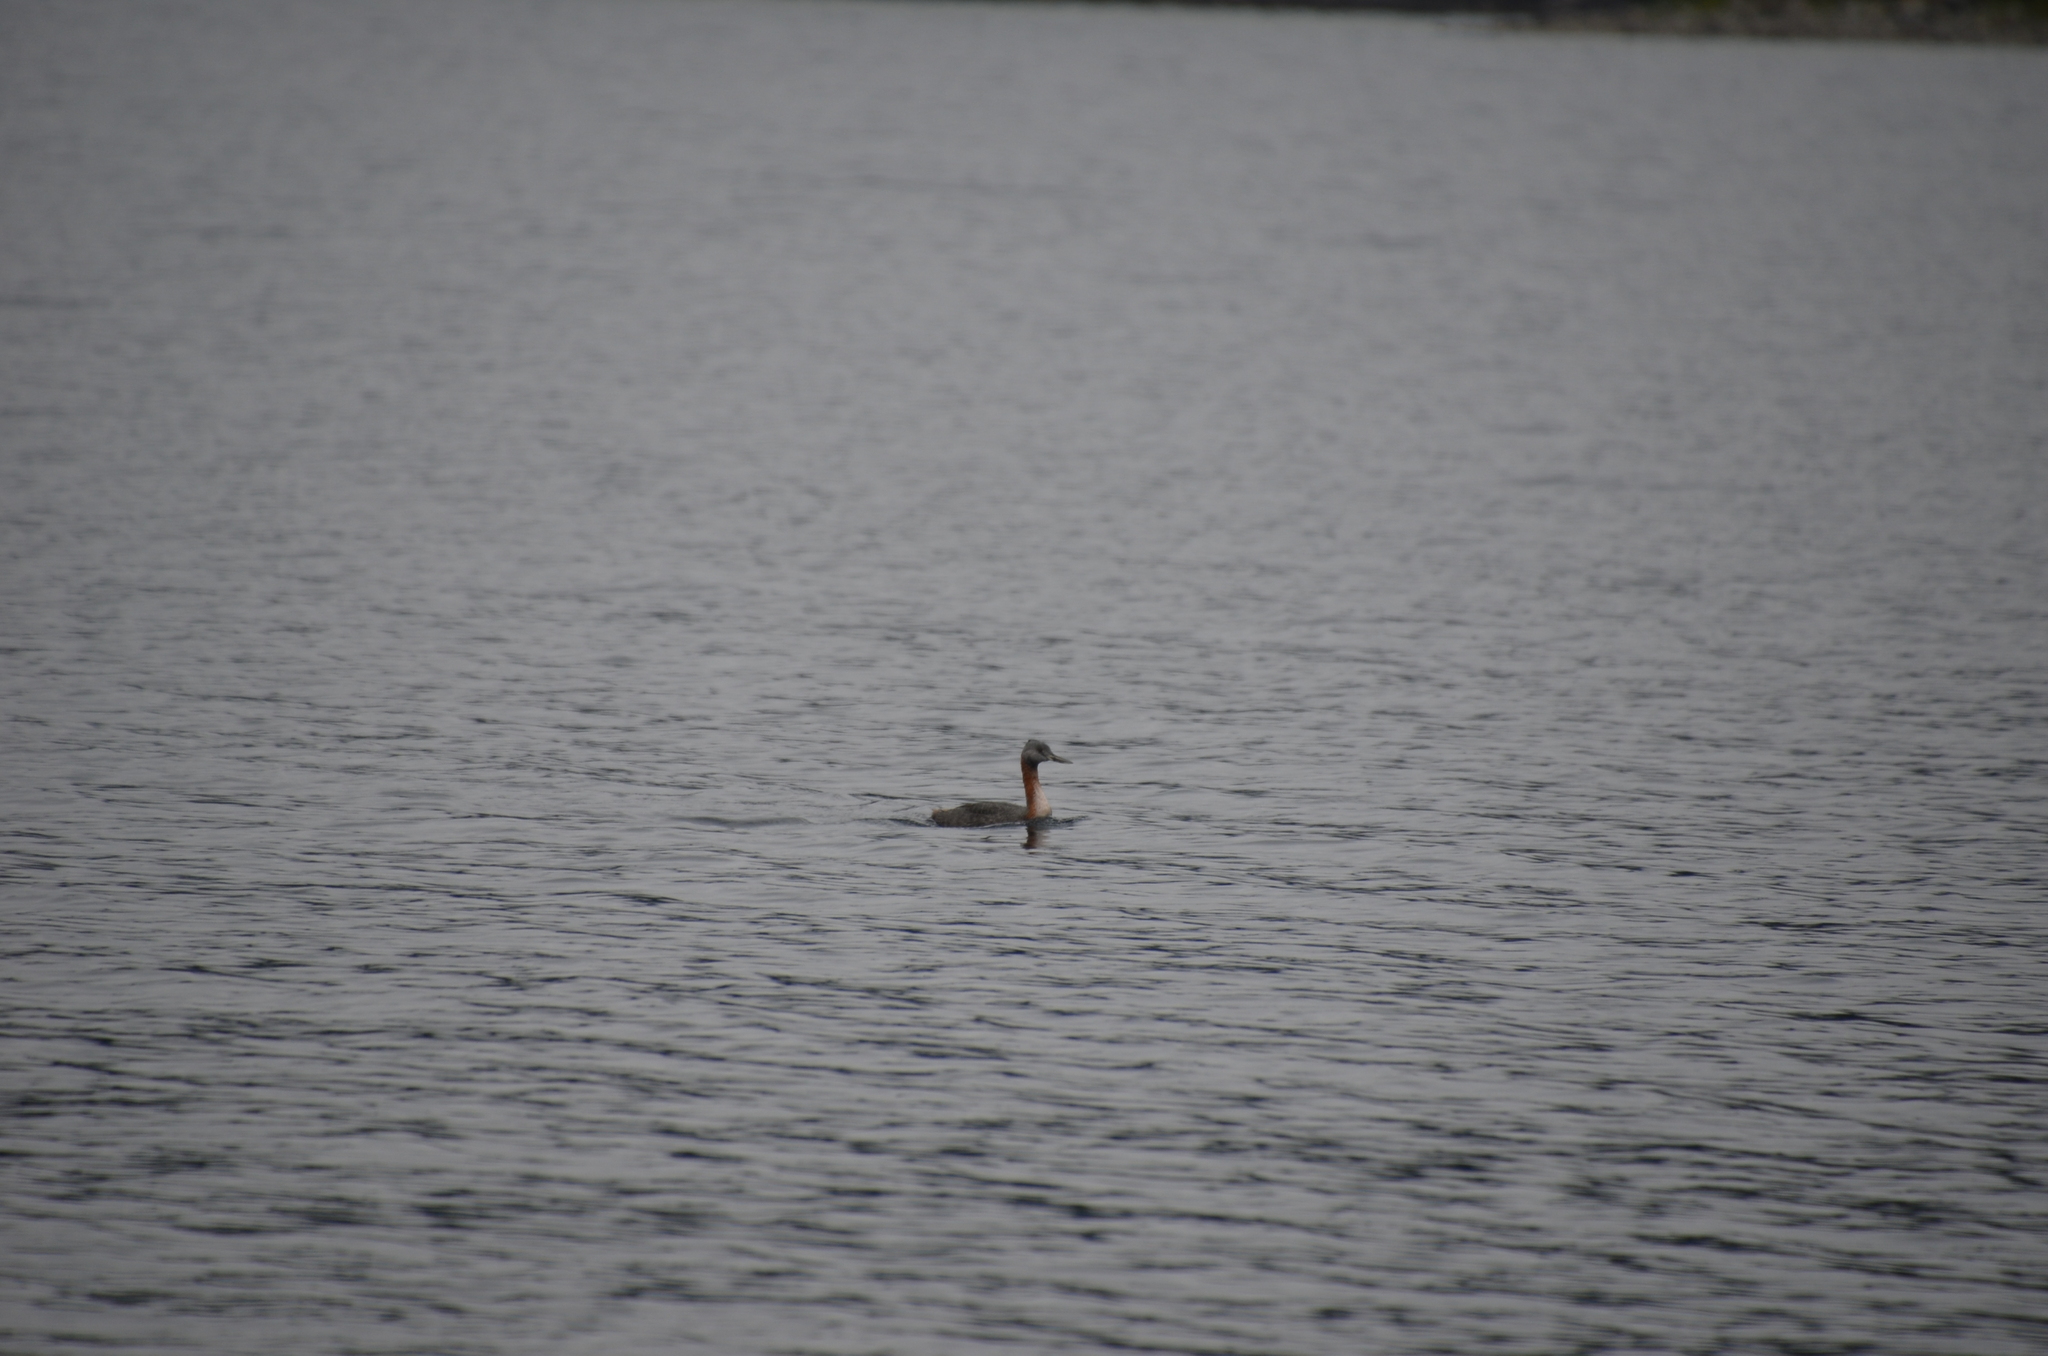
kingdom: Animalia
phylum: Chordata
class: Aves
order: Podicipediformes
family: Podicipedidae
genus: Podiceps
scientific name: Podiceps major
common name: Great grebe
